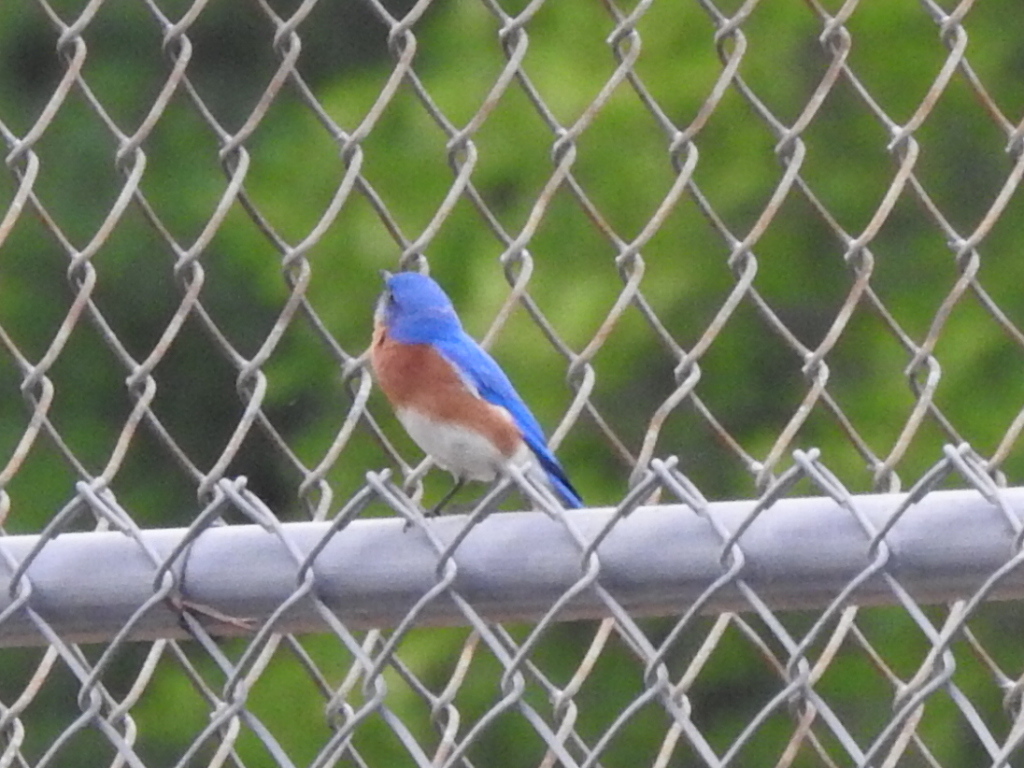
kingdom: Animalia
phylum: Chordata
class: Aves
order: Passeriformes
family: Turdidae
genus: Sialia
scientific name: Sialia sialis
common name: Eastern bluebird
